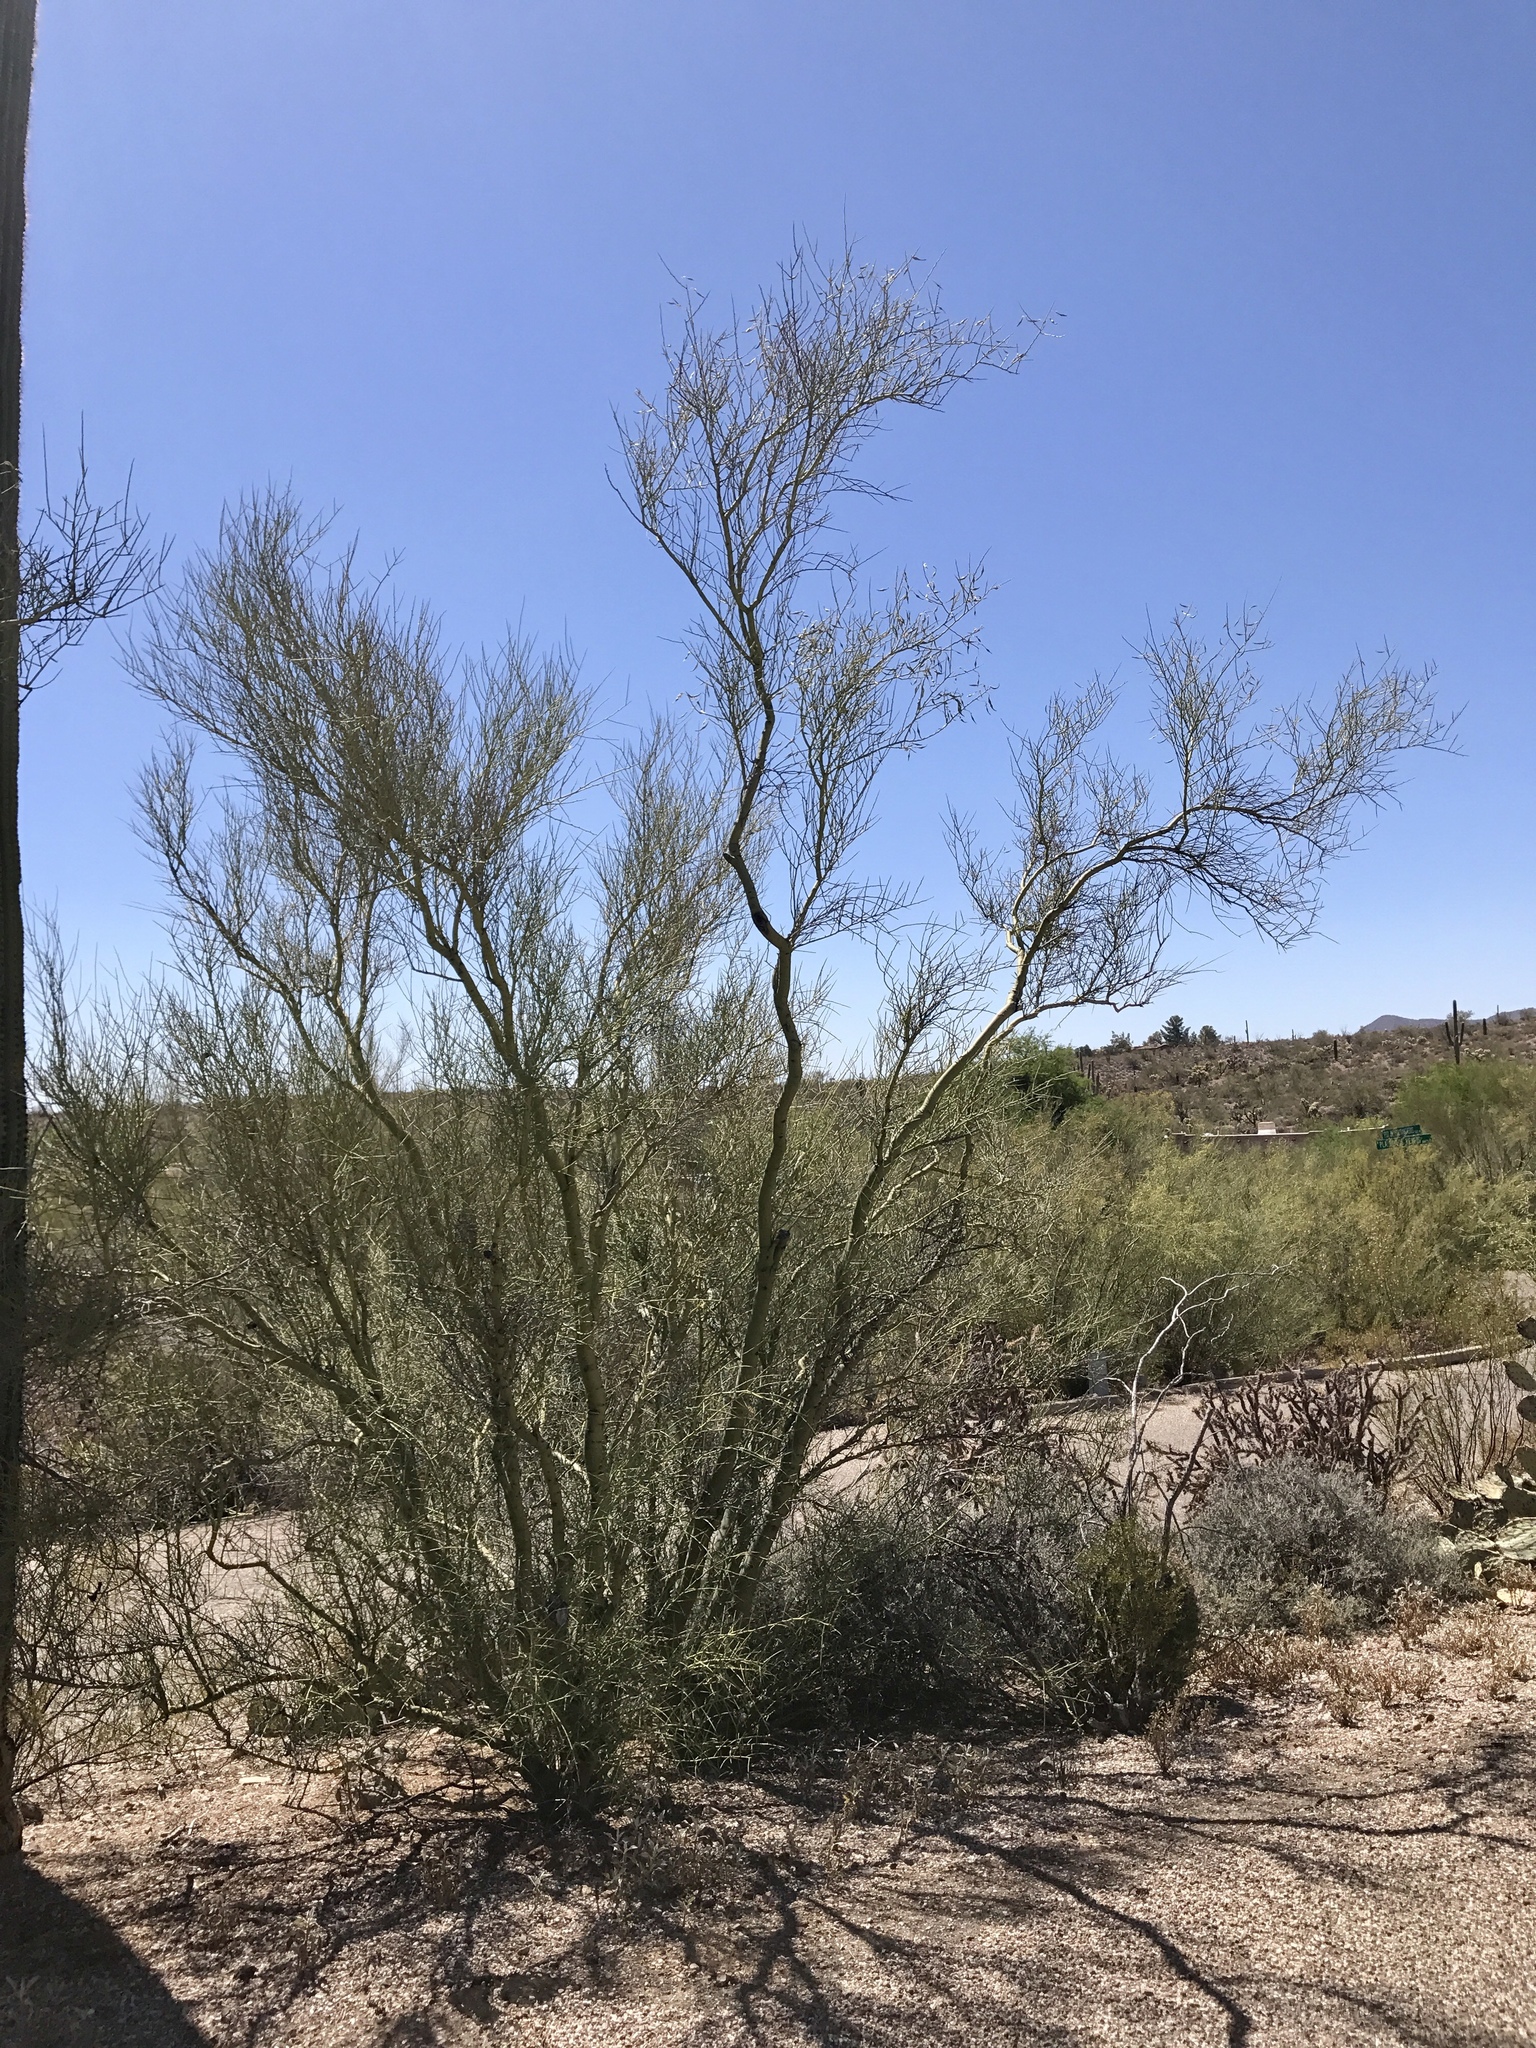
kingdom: Plantae
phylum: Tracheophyta
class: Magnoliopsida
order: Fabales
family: Fabaceae
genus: Parkinsonia
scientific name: Parkinsonia microphylla
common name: Yellow paloverde
